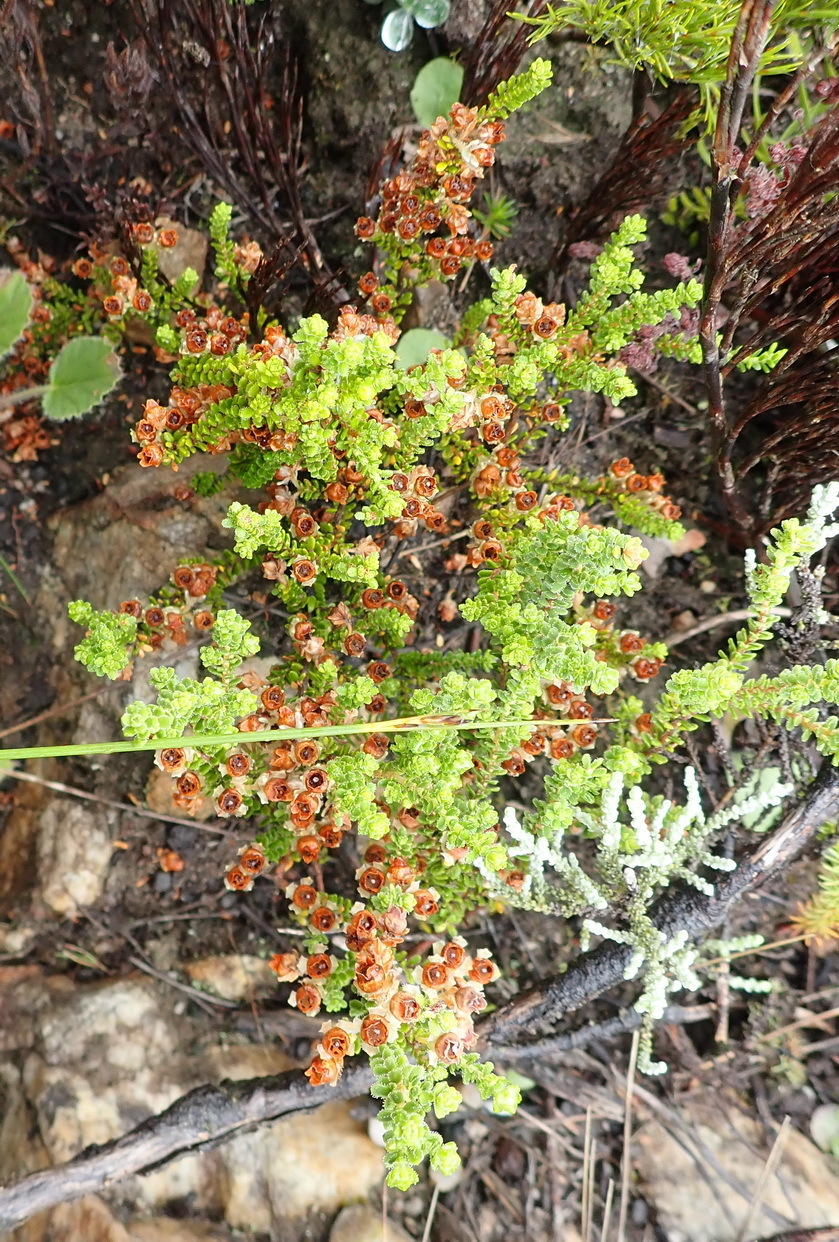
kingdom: Plantae
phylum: Tracheophyta
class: Magnoliopsida
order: Ericales
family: Ericaceae
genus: Erica
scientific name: Erica fimbriata
